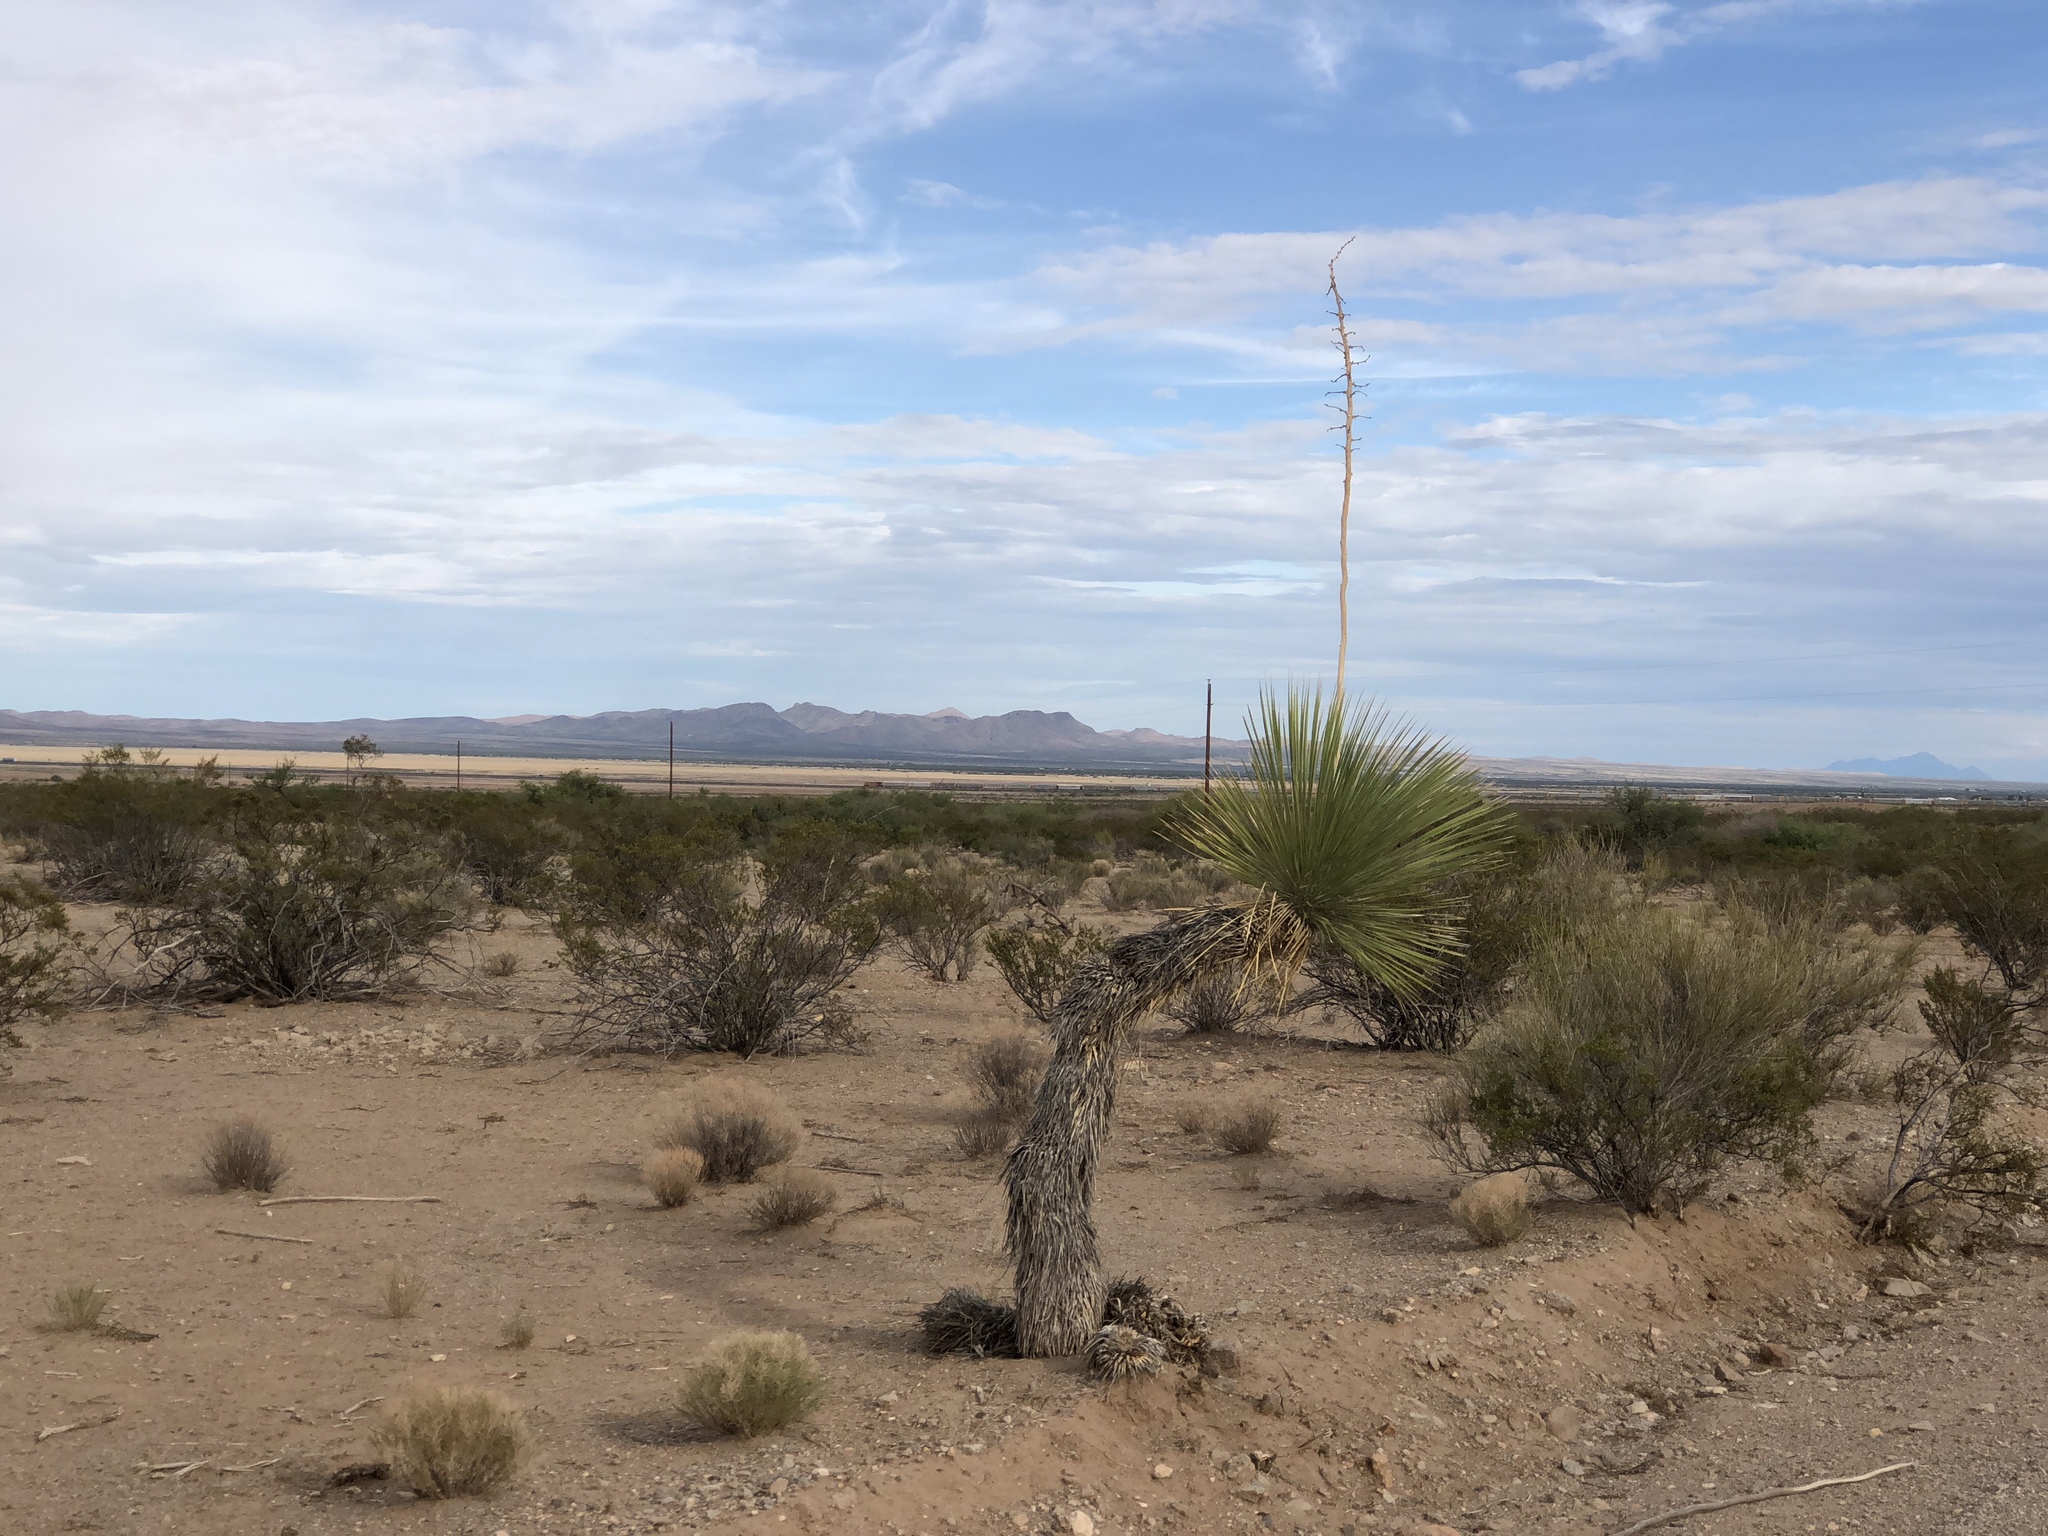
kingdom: Plantae
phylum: Tracheophyta
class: Liliopsida
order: Asparagales
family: Asparagaceae
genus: Yucca
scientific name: Yucca elata
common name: Palmella
